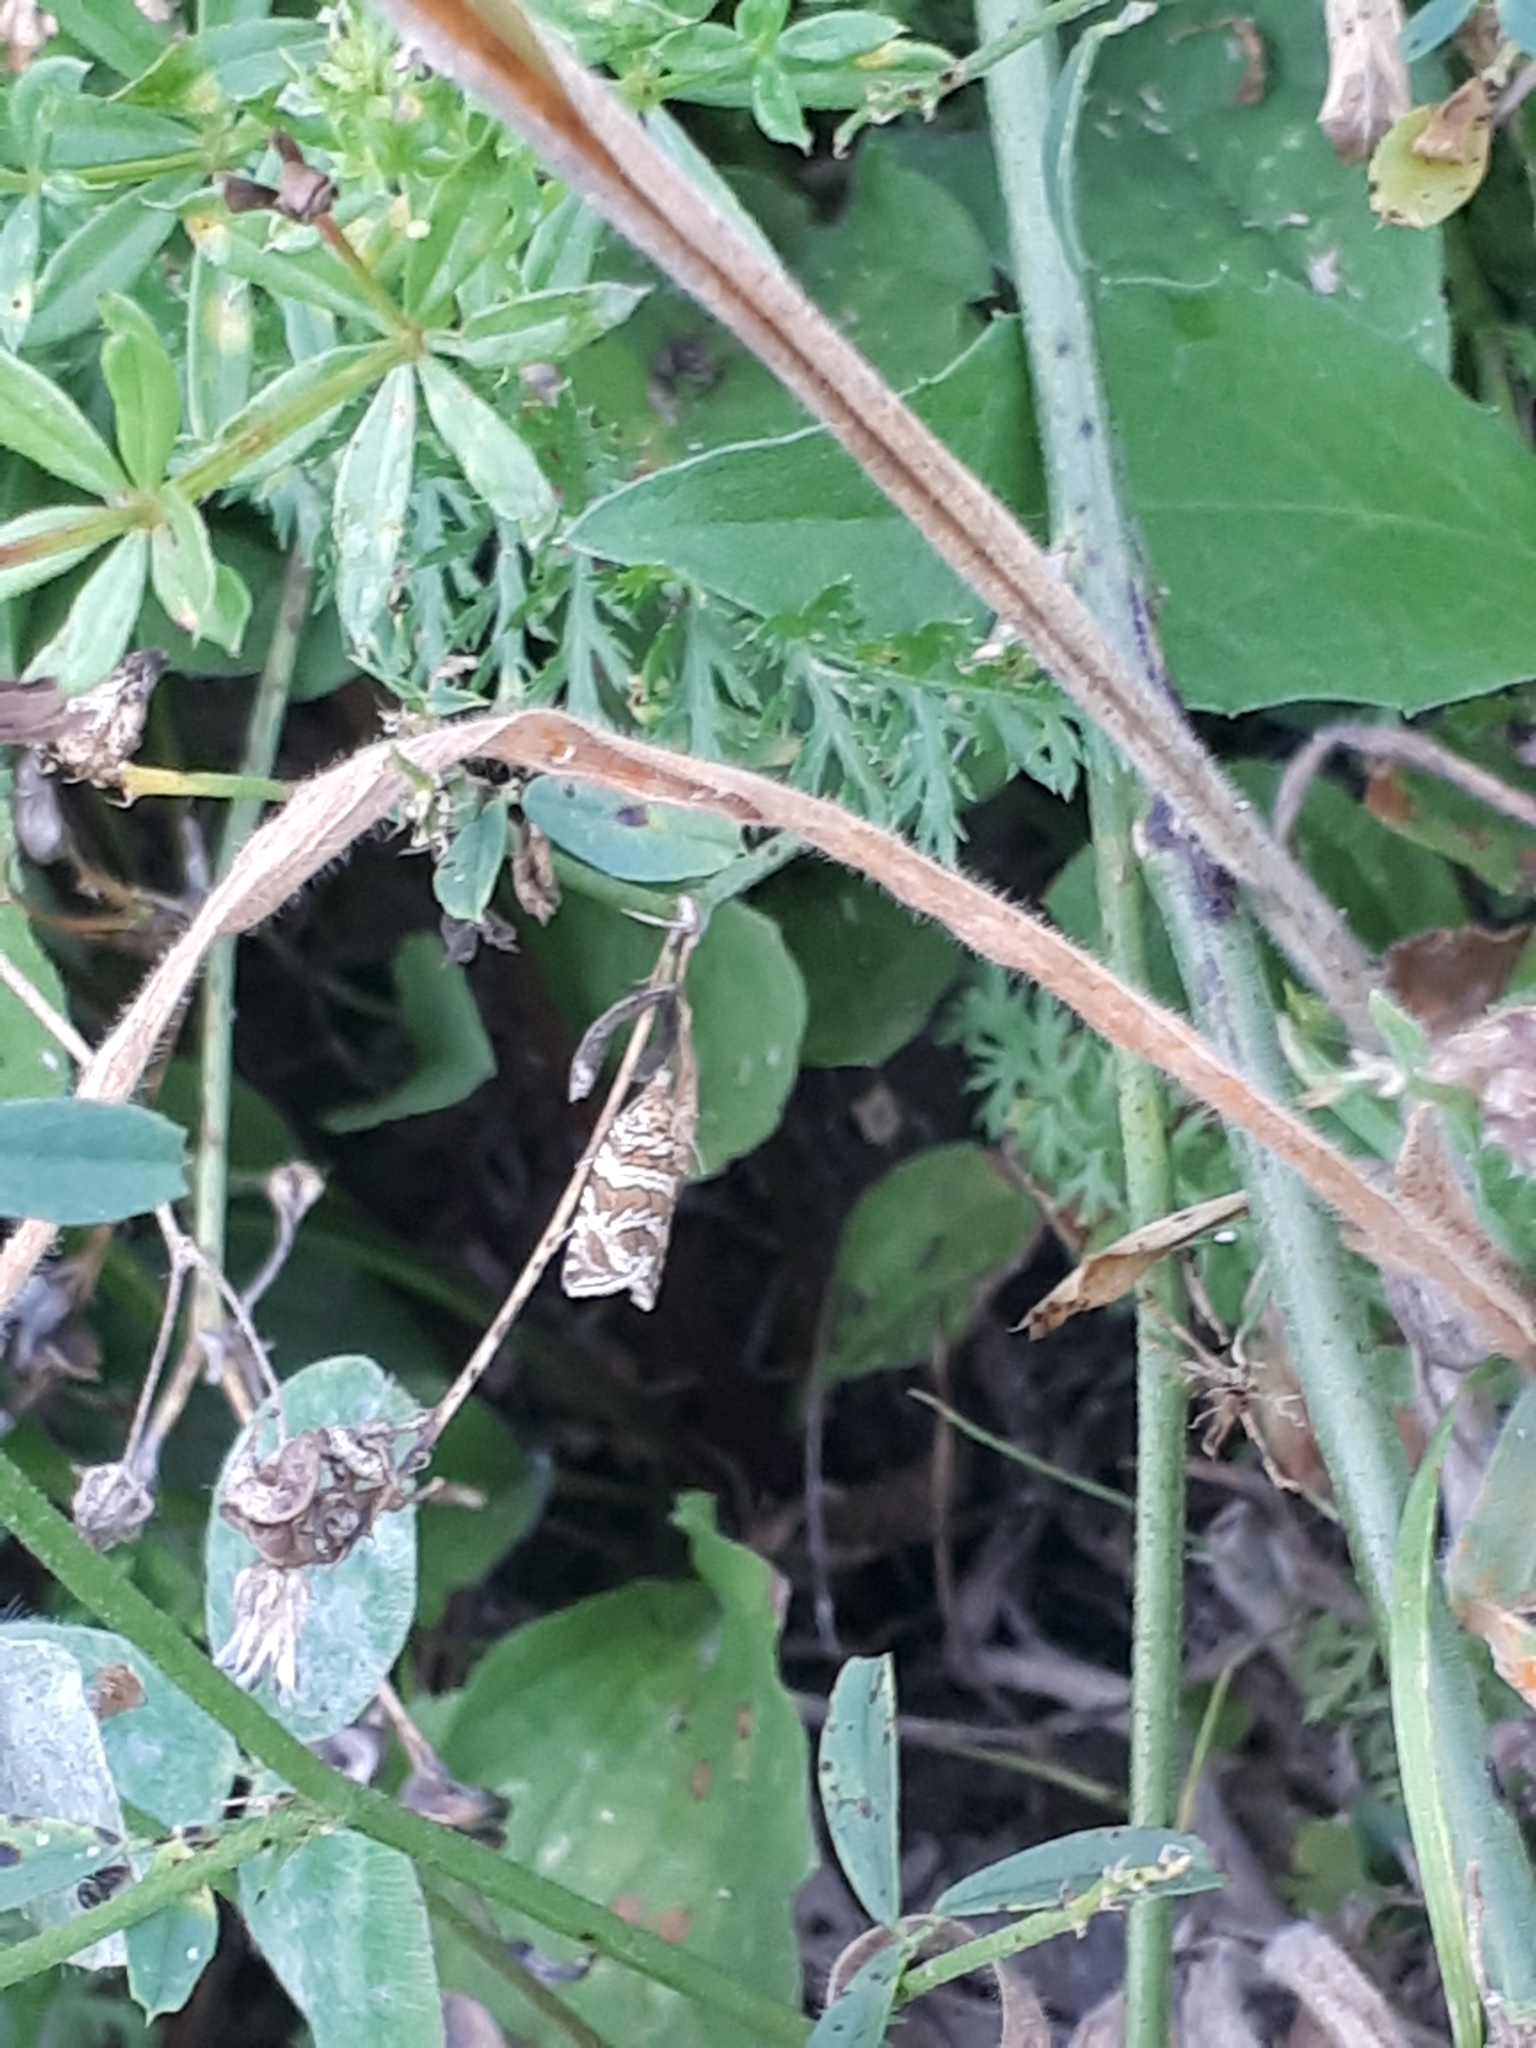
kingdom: Animalia
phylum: Arthropoda
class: Insecta
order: Lepidoptera
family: Tortricidae
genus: Syricoris
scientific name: Syricoris rivulana
